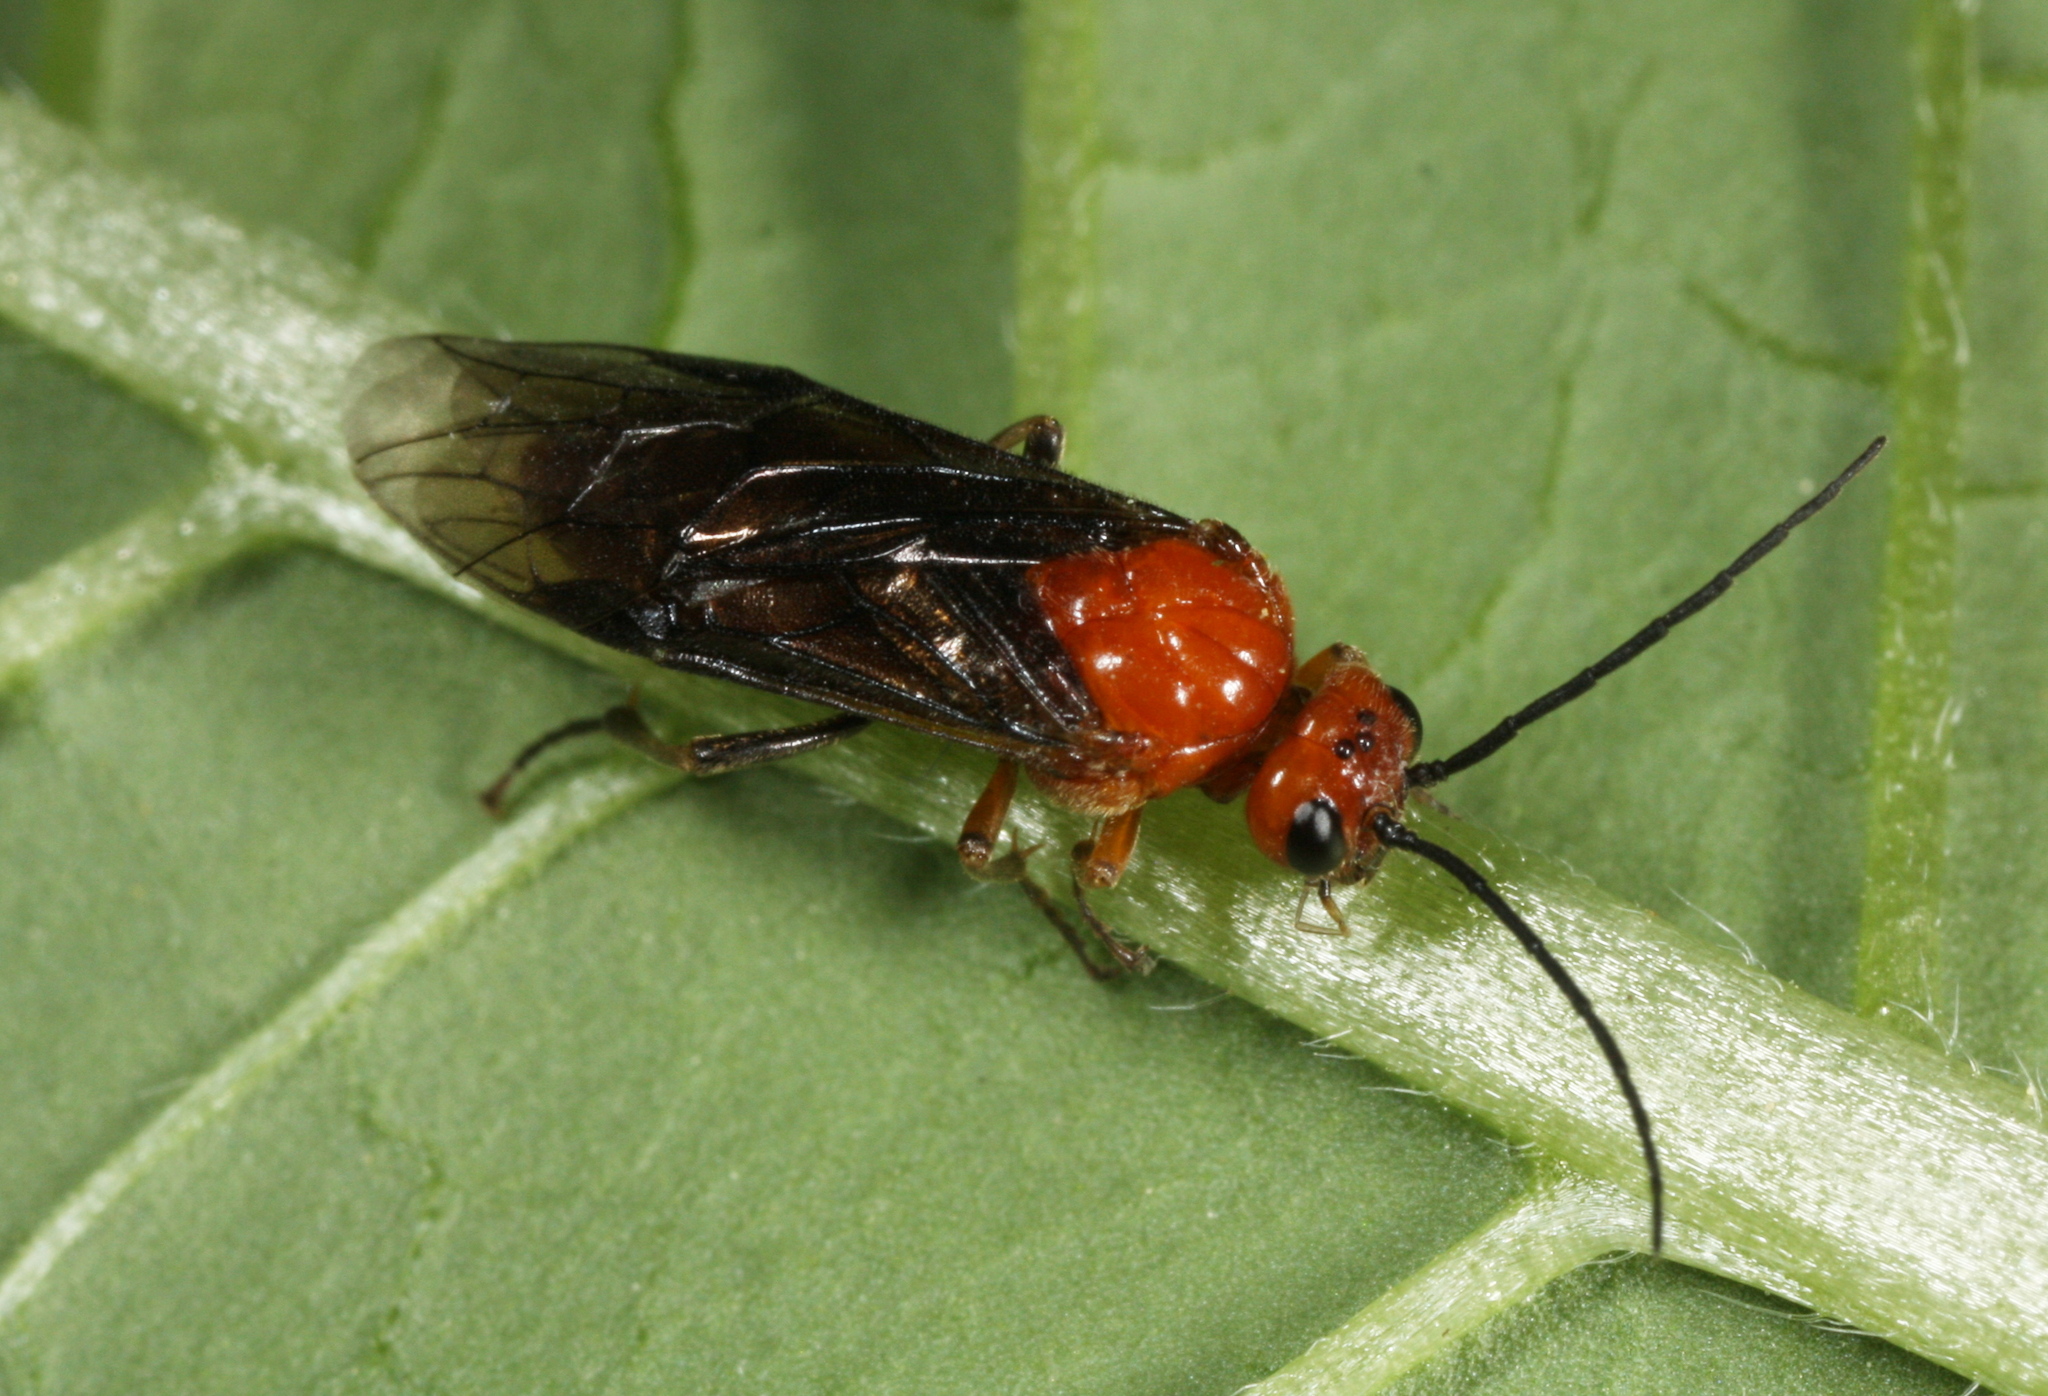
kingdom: Animalia
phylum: Arthropoda
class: Insecta
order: Hymenoptera
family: Tenthredinidae
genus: Hemichroa
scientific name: Hemichroa crocea
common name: Striped alder sawfly
